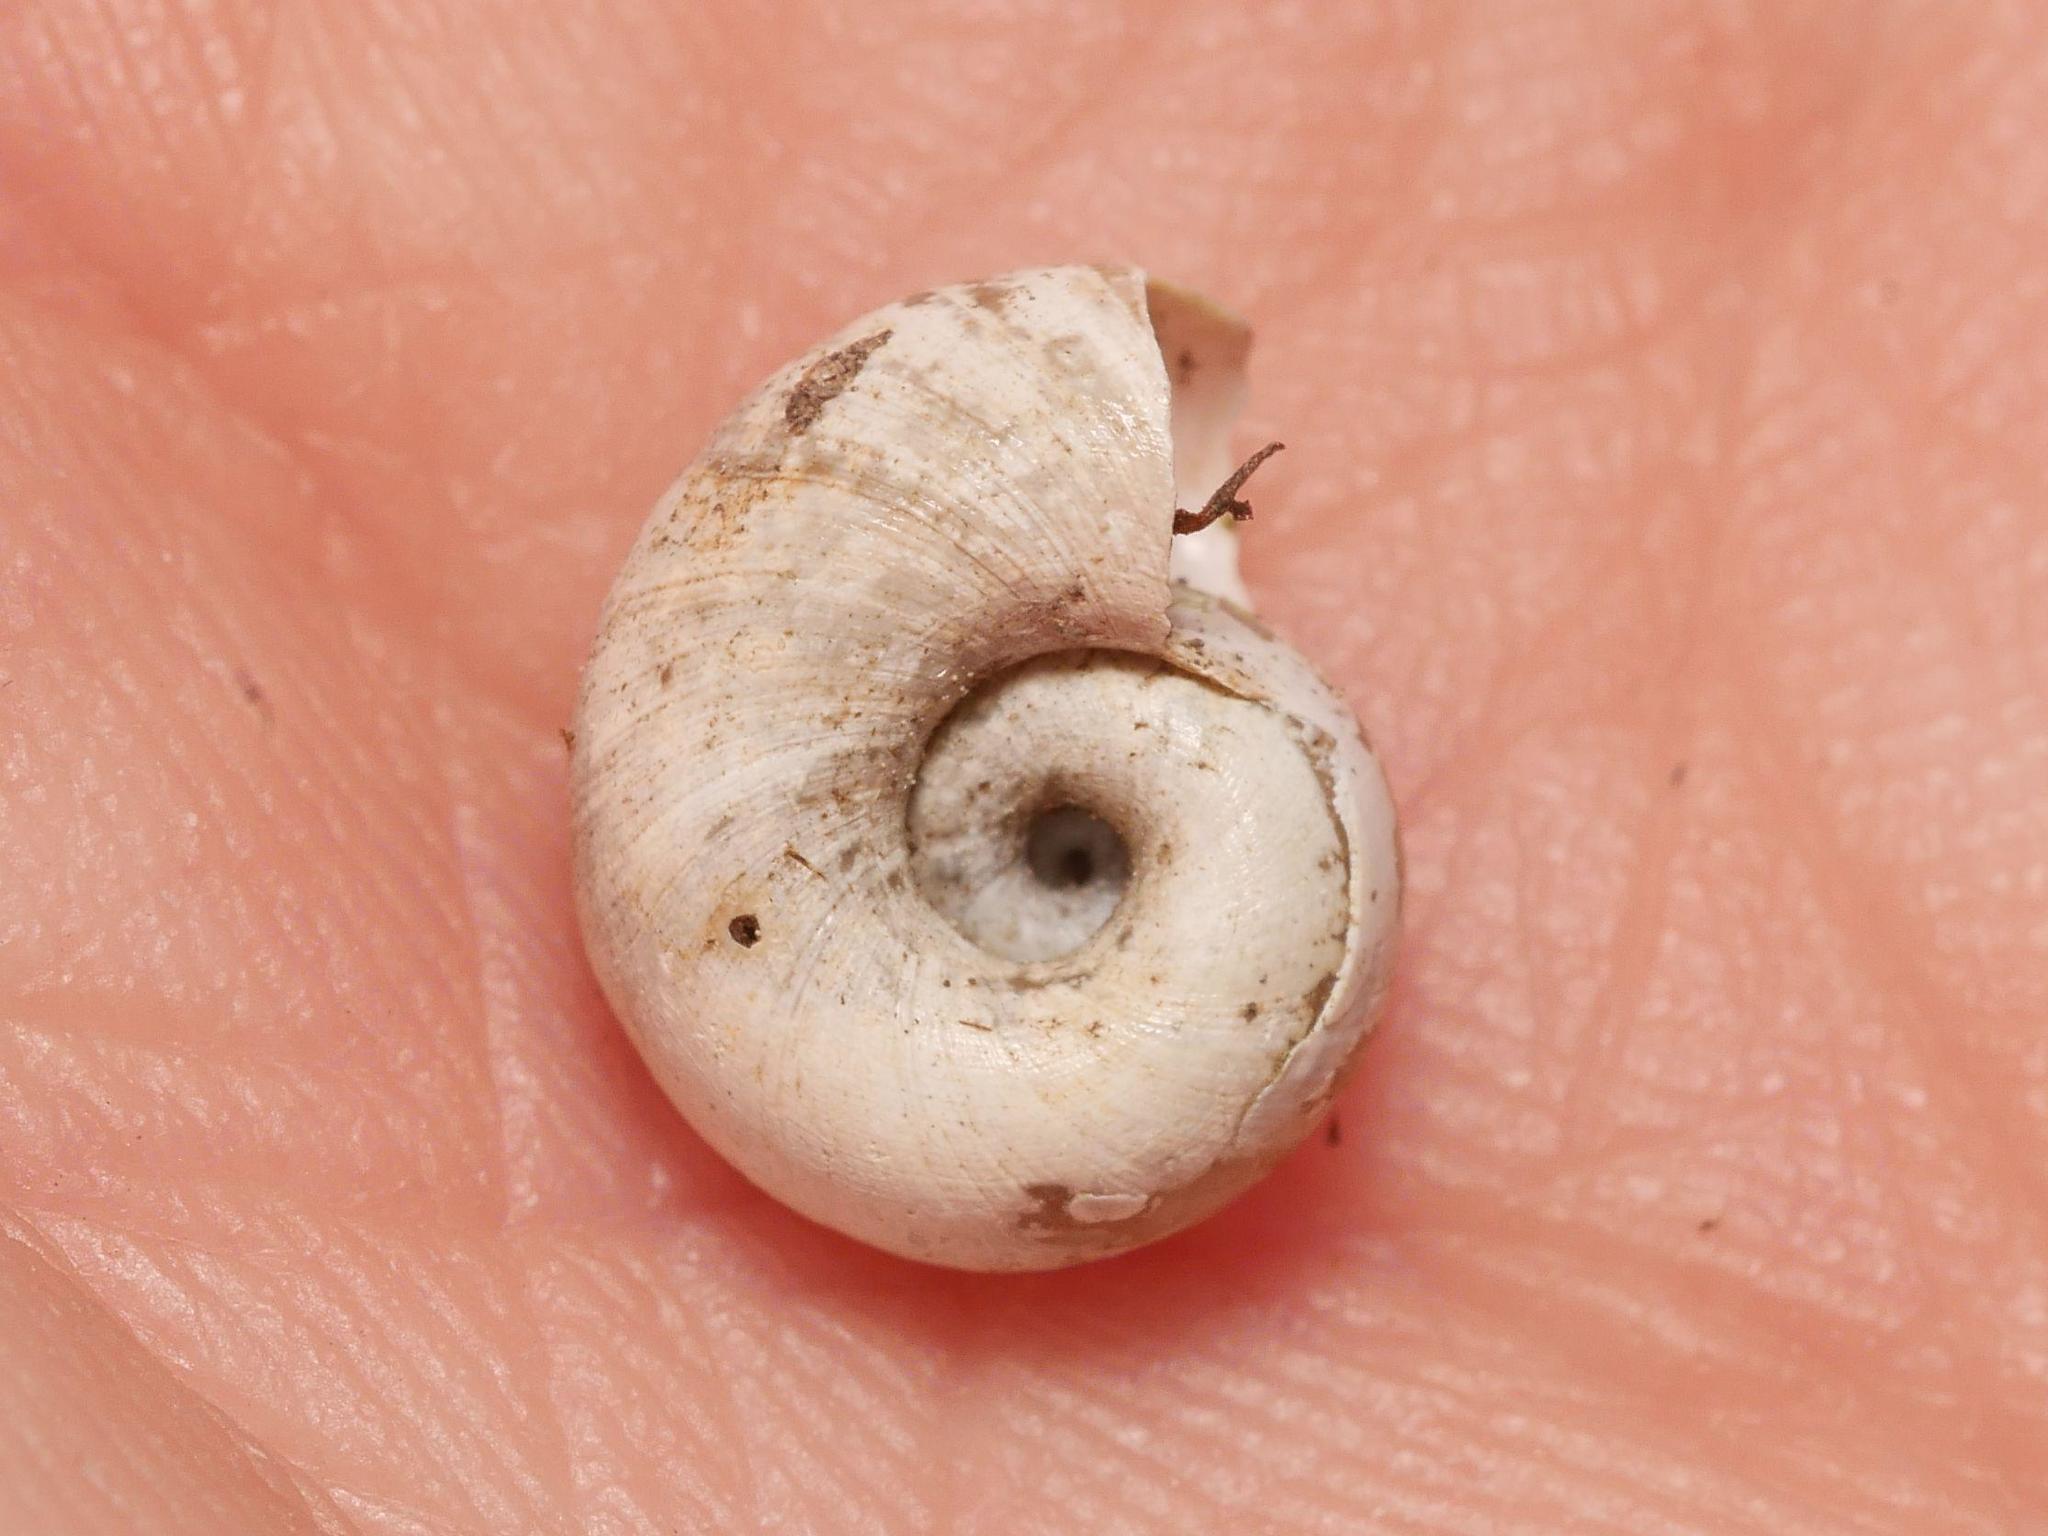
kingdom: Animalia
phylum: Mollusca
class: Gastropoda
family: Planorbidae
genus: Planorbarius
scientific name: Planorbarius corneus
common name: Great ramshorn
